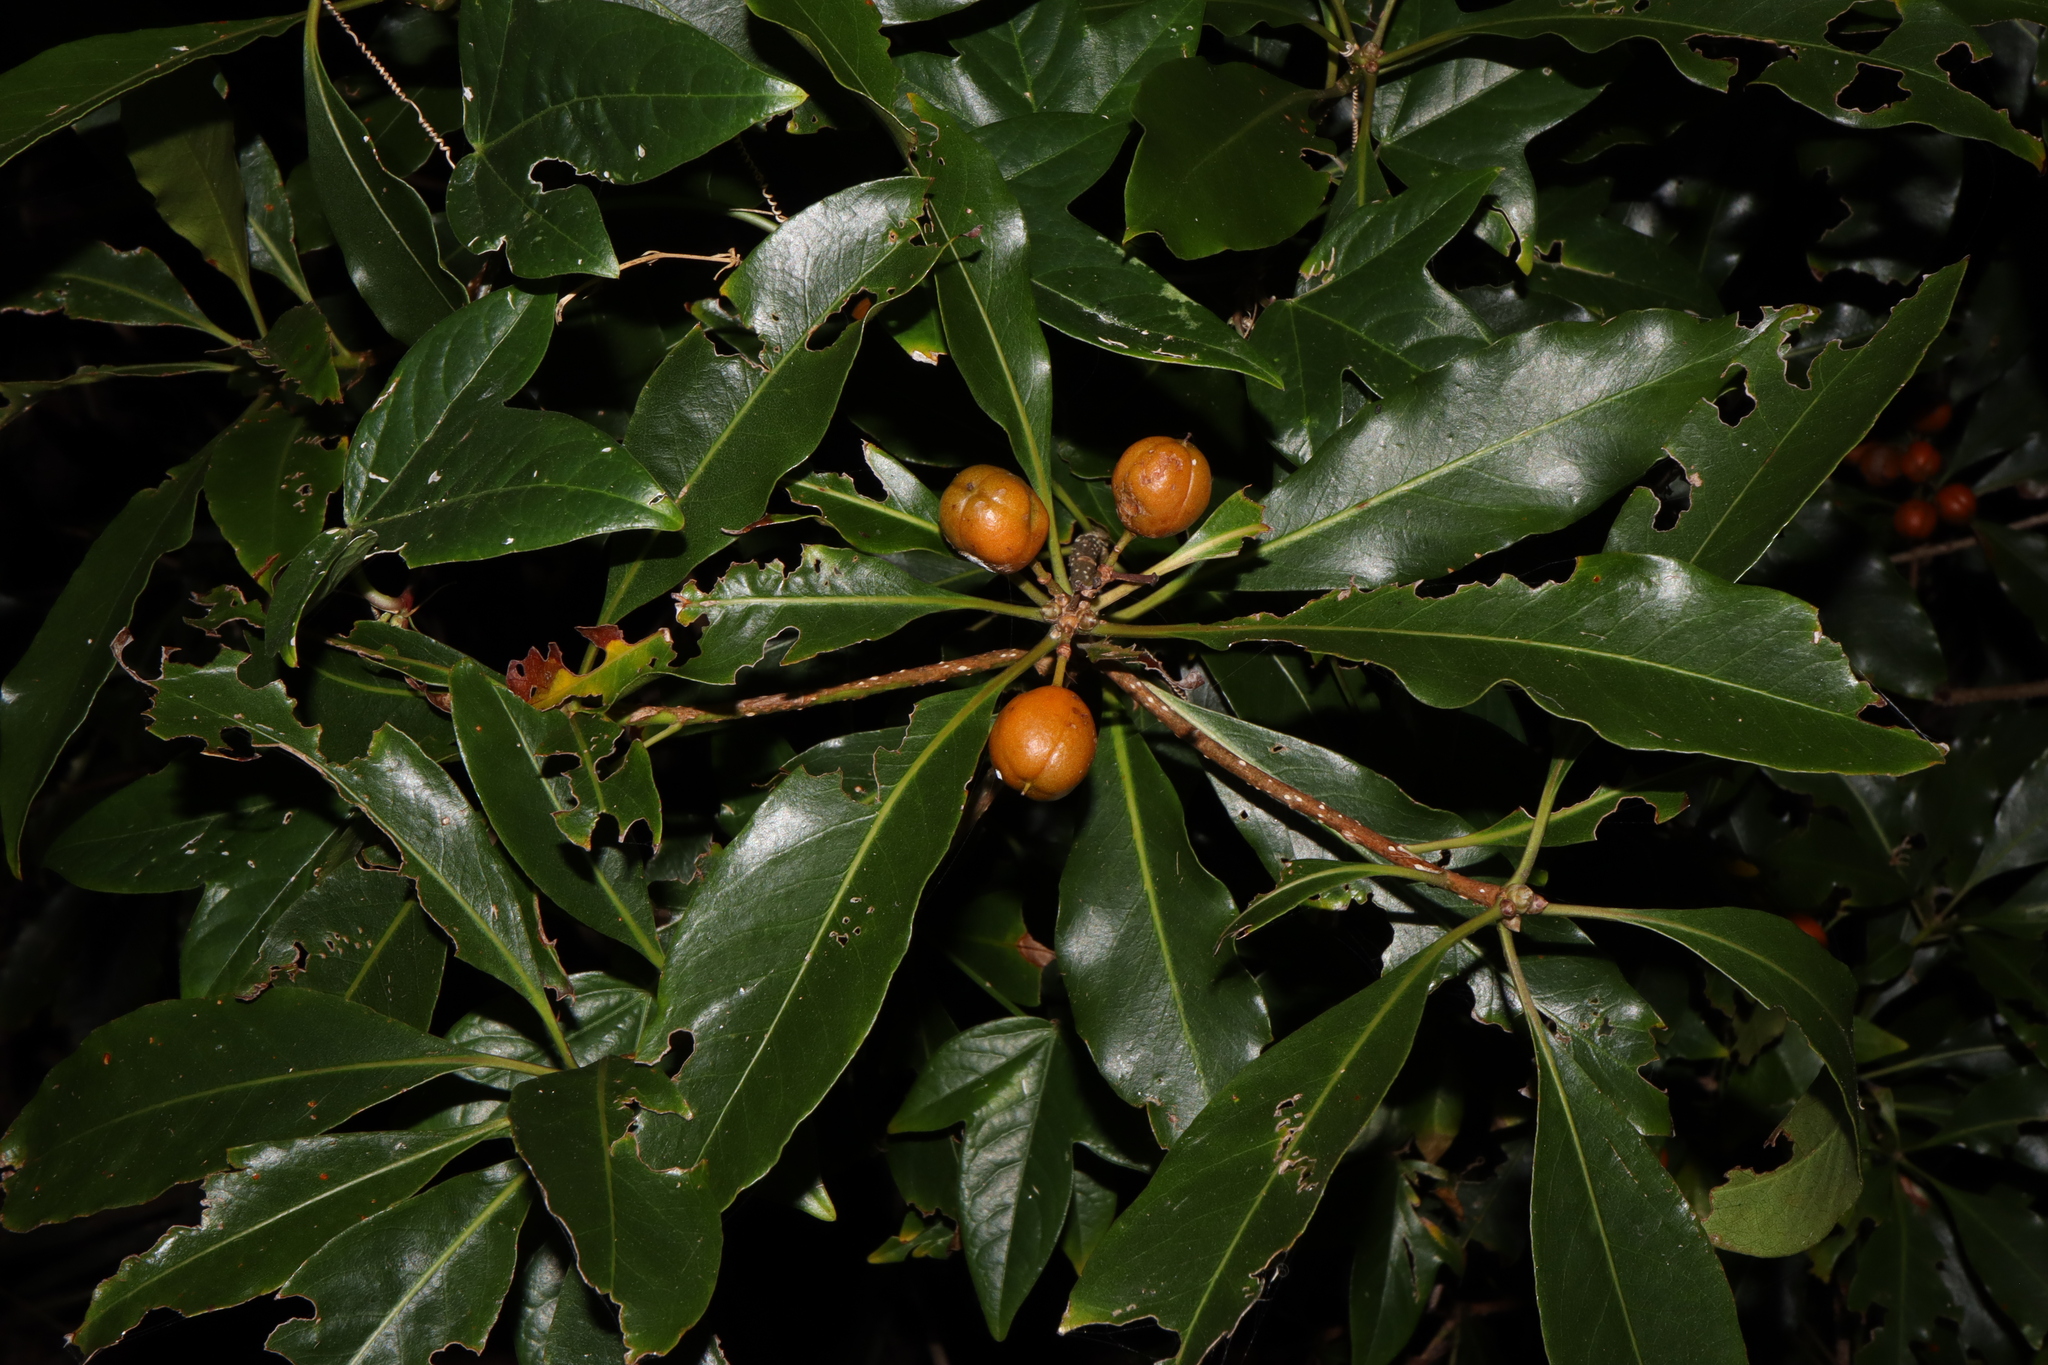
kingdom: Plantae
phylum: Tracheophyta
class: Magnoliopsida
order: Apiales
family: Pittosporaceae
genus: Pittosporum
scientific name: Pittosporum undulatum
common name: Australian cheesewood
